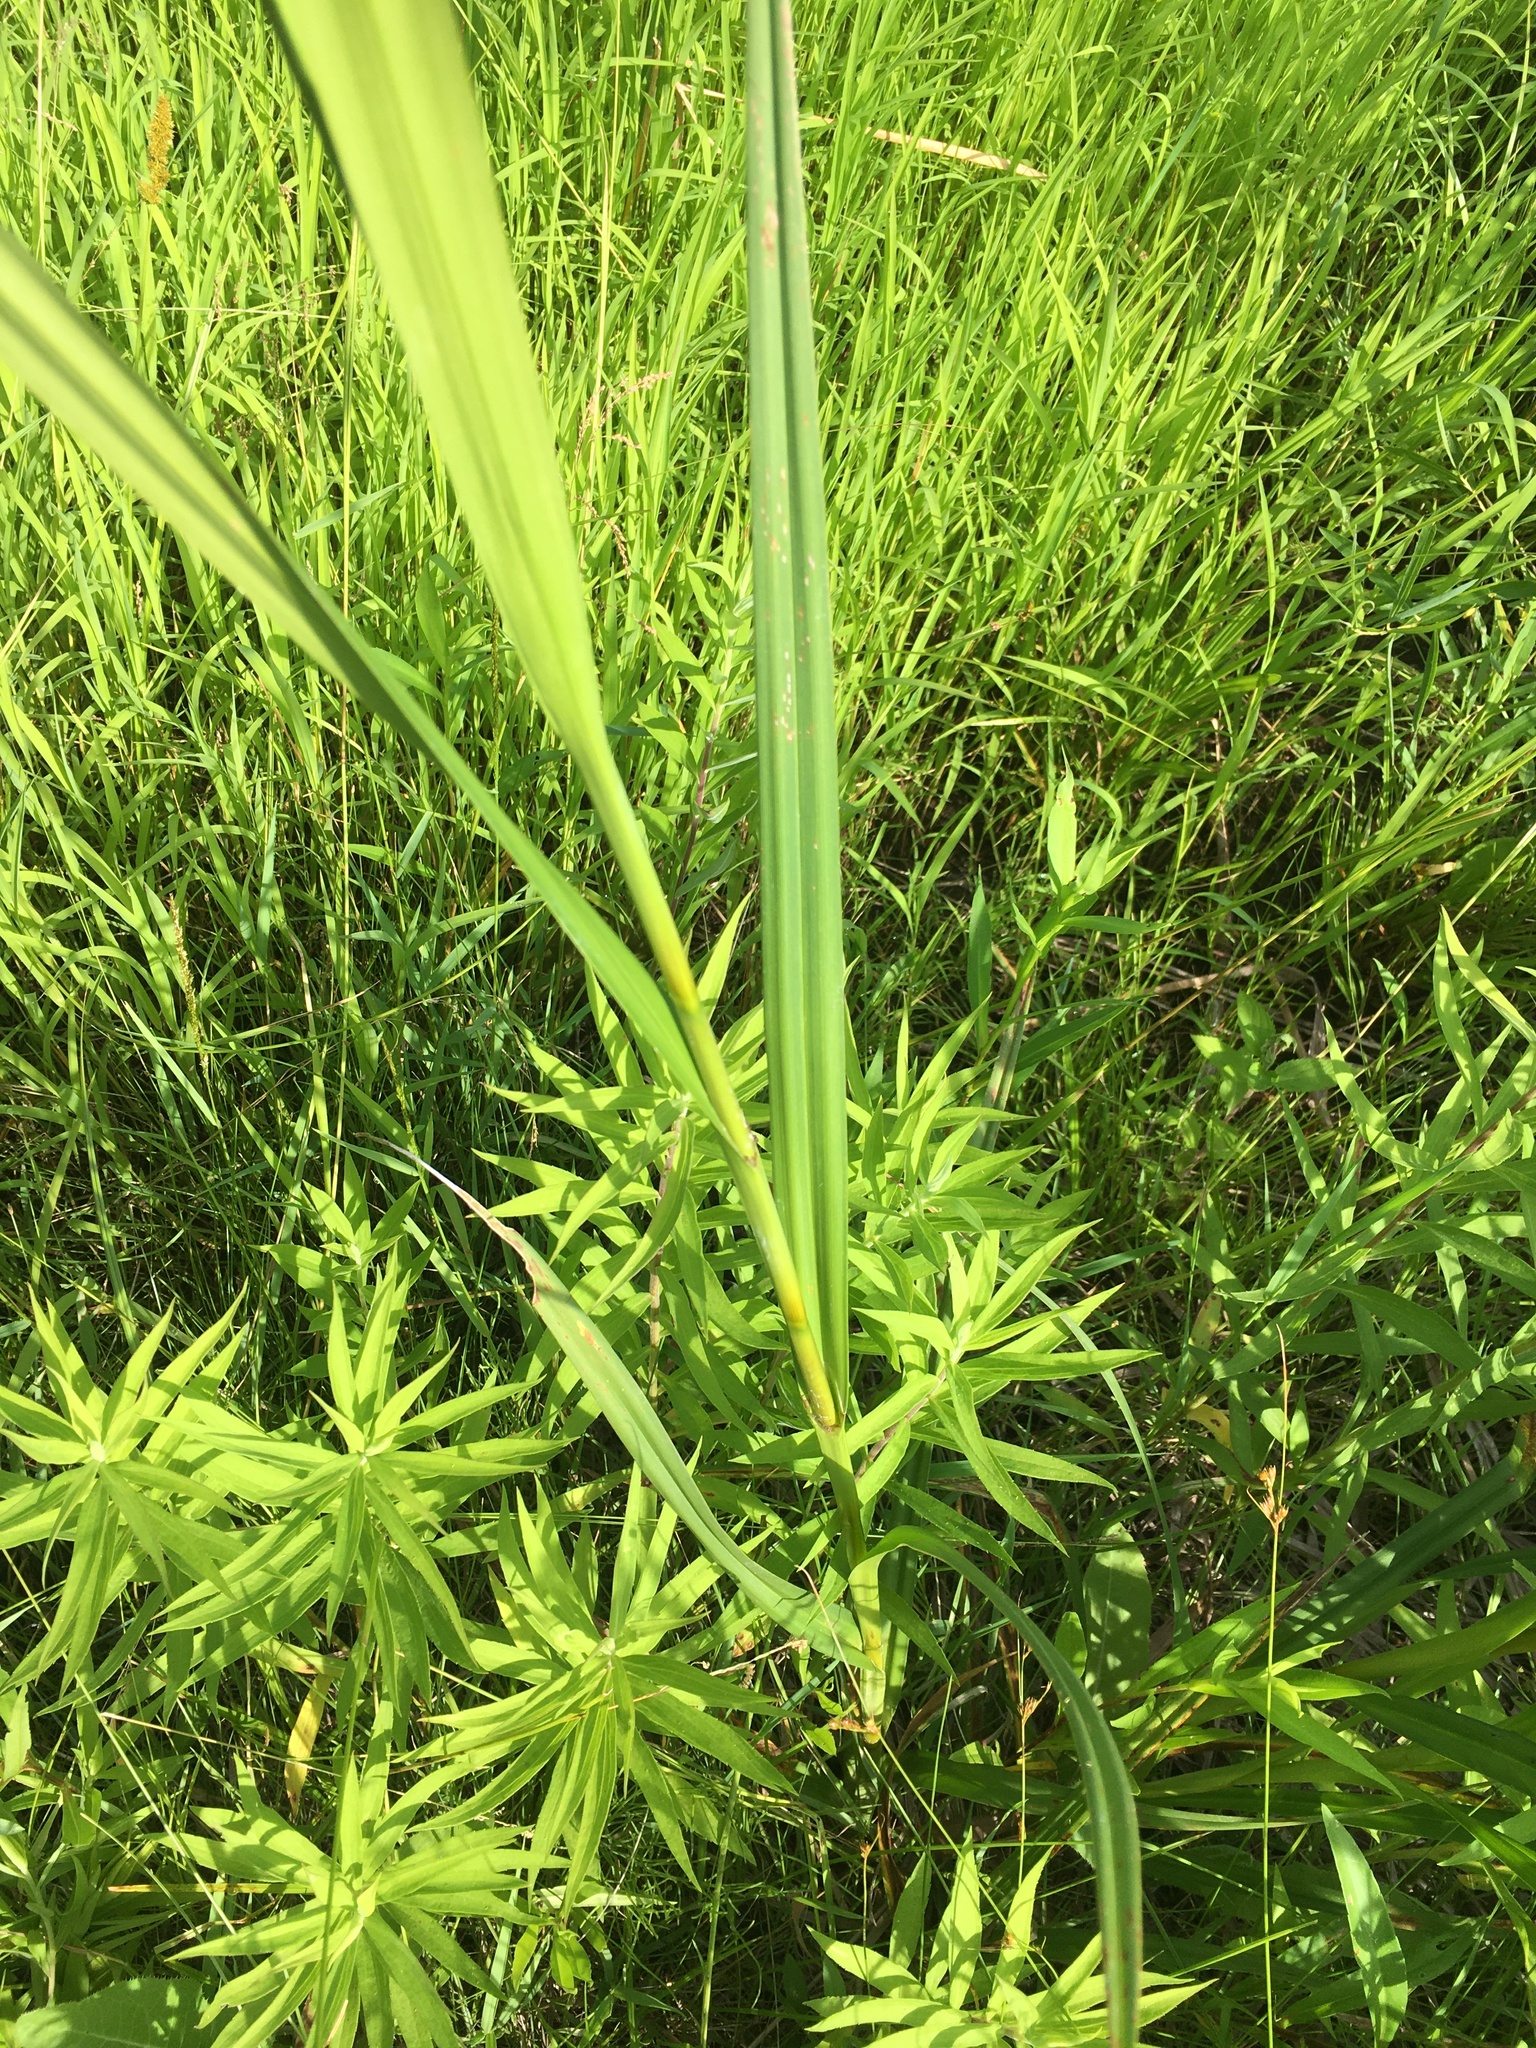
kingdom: Plantae
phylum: Tracheophyta
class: Liliopsida
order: Poales
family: Cyperaceae
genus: Scirpus
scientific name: Scirpus atrovirens
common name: Black bulrush
